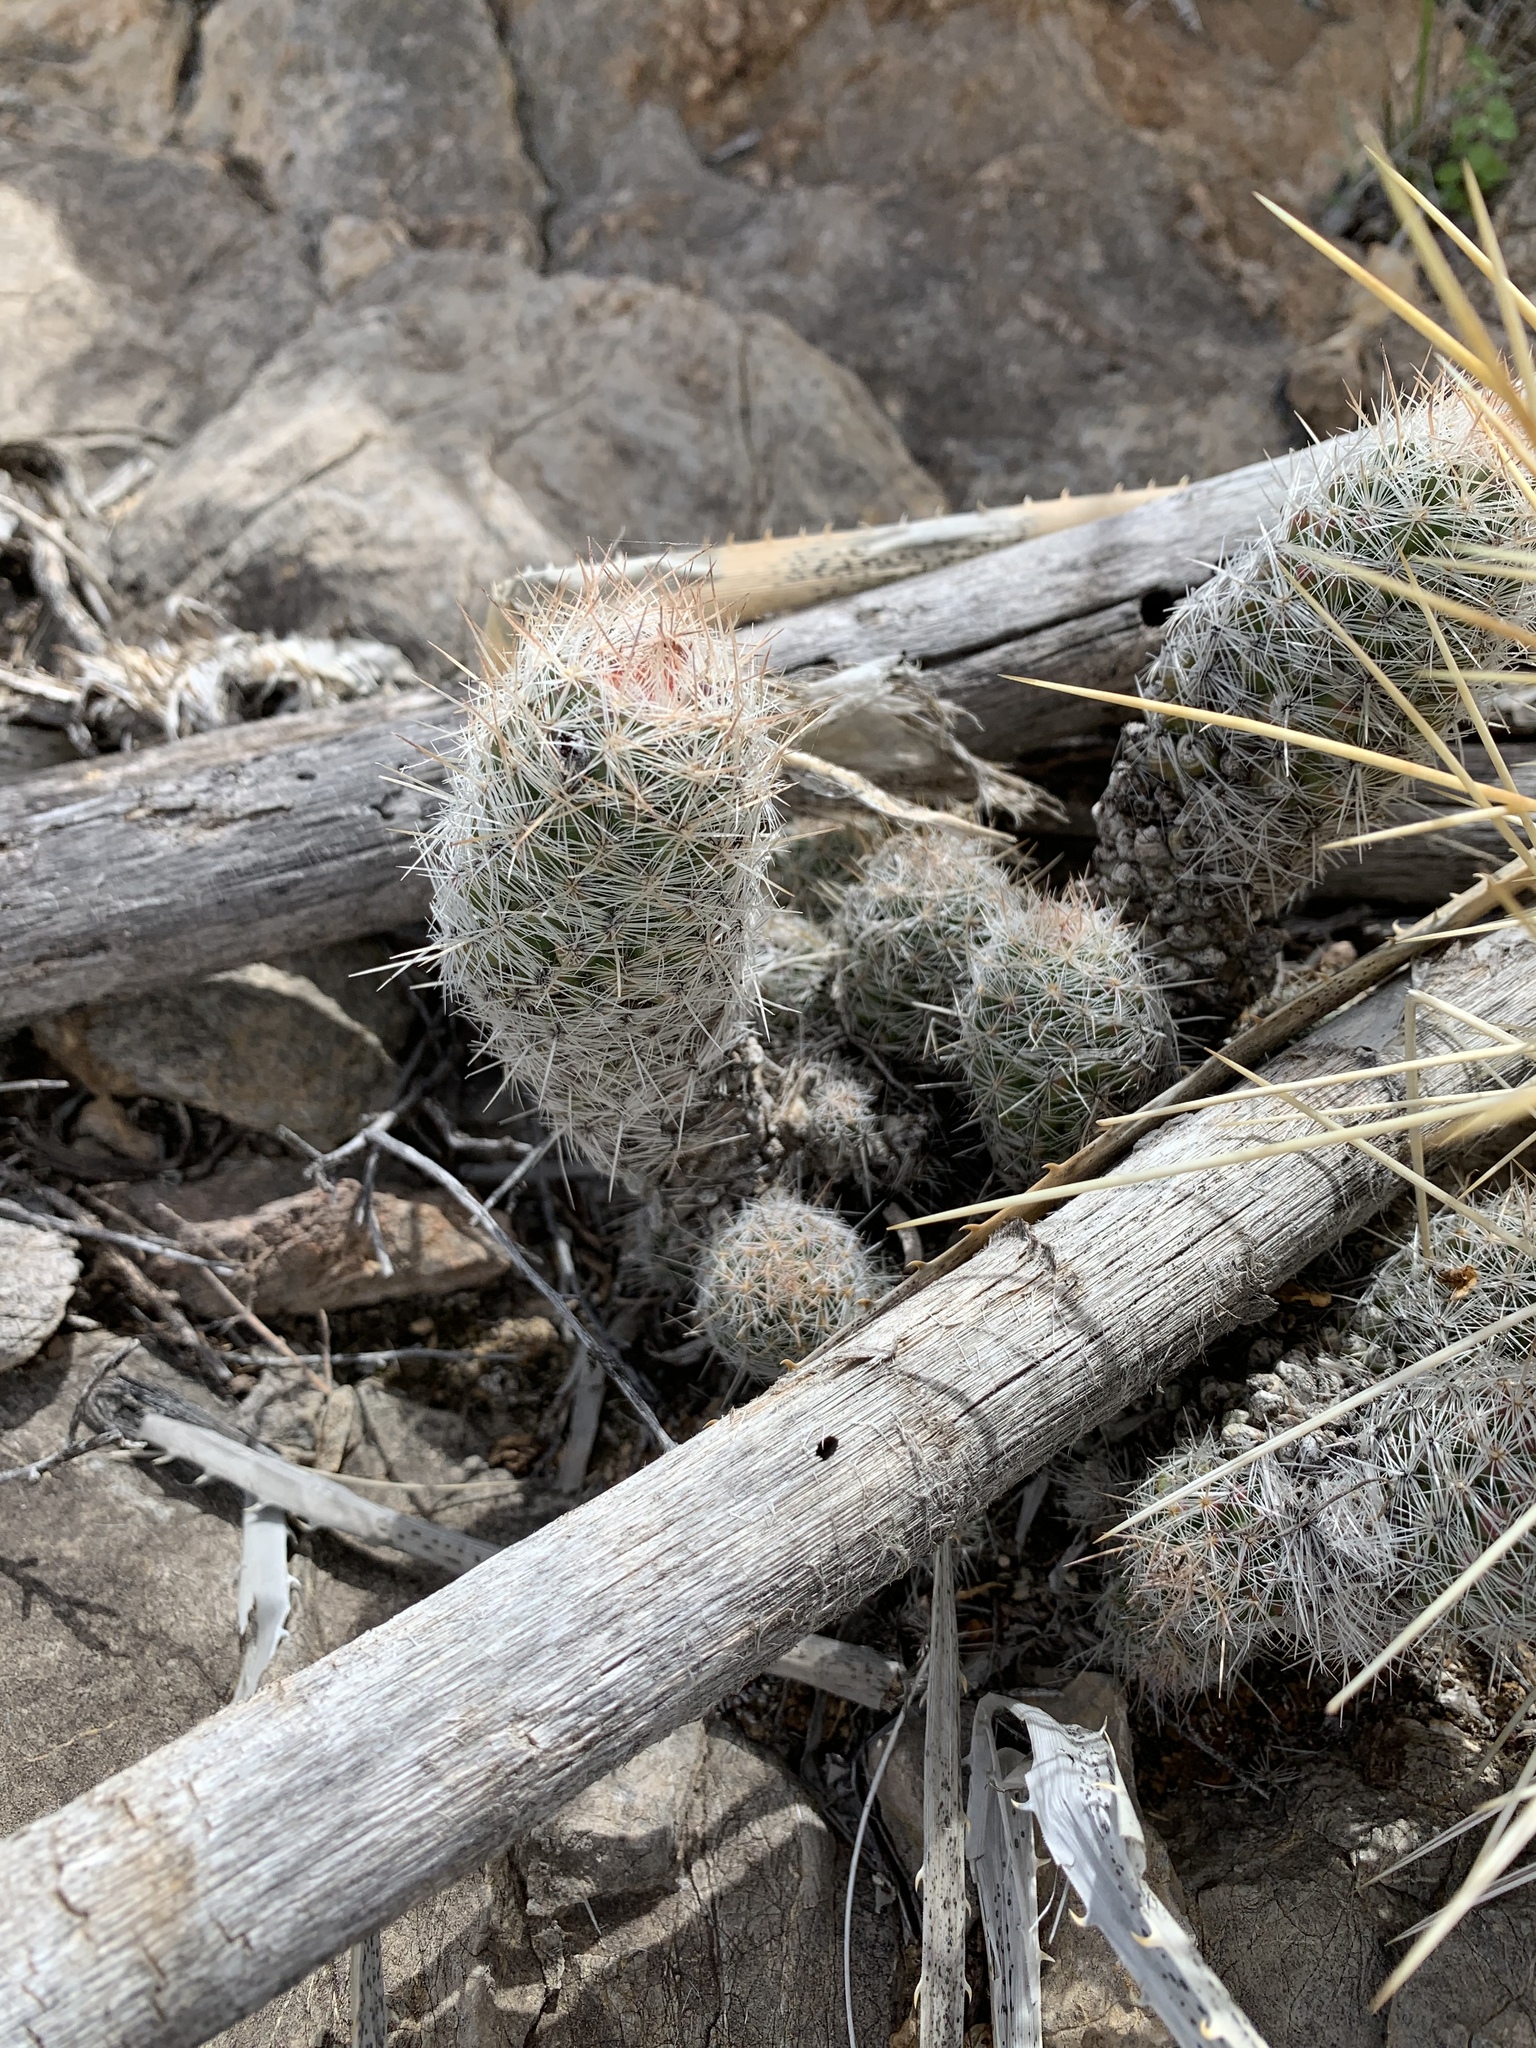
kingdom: Plantae
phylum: Tracheophyta
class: Magnoliopsida
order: Caryophyllales
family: Cactaceae
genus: Pelecyphora
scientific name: Pelecyphora tuberculosa
